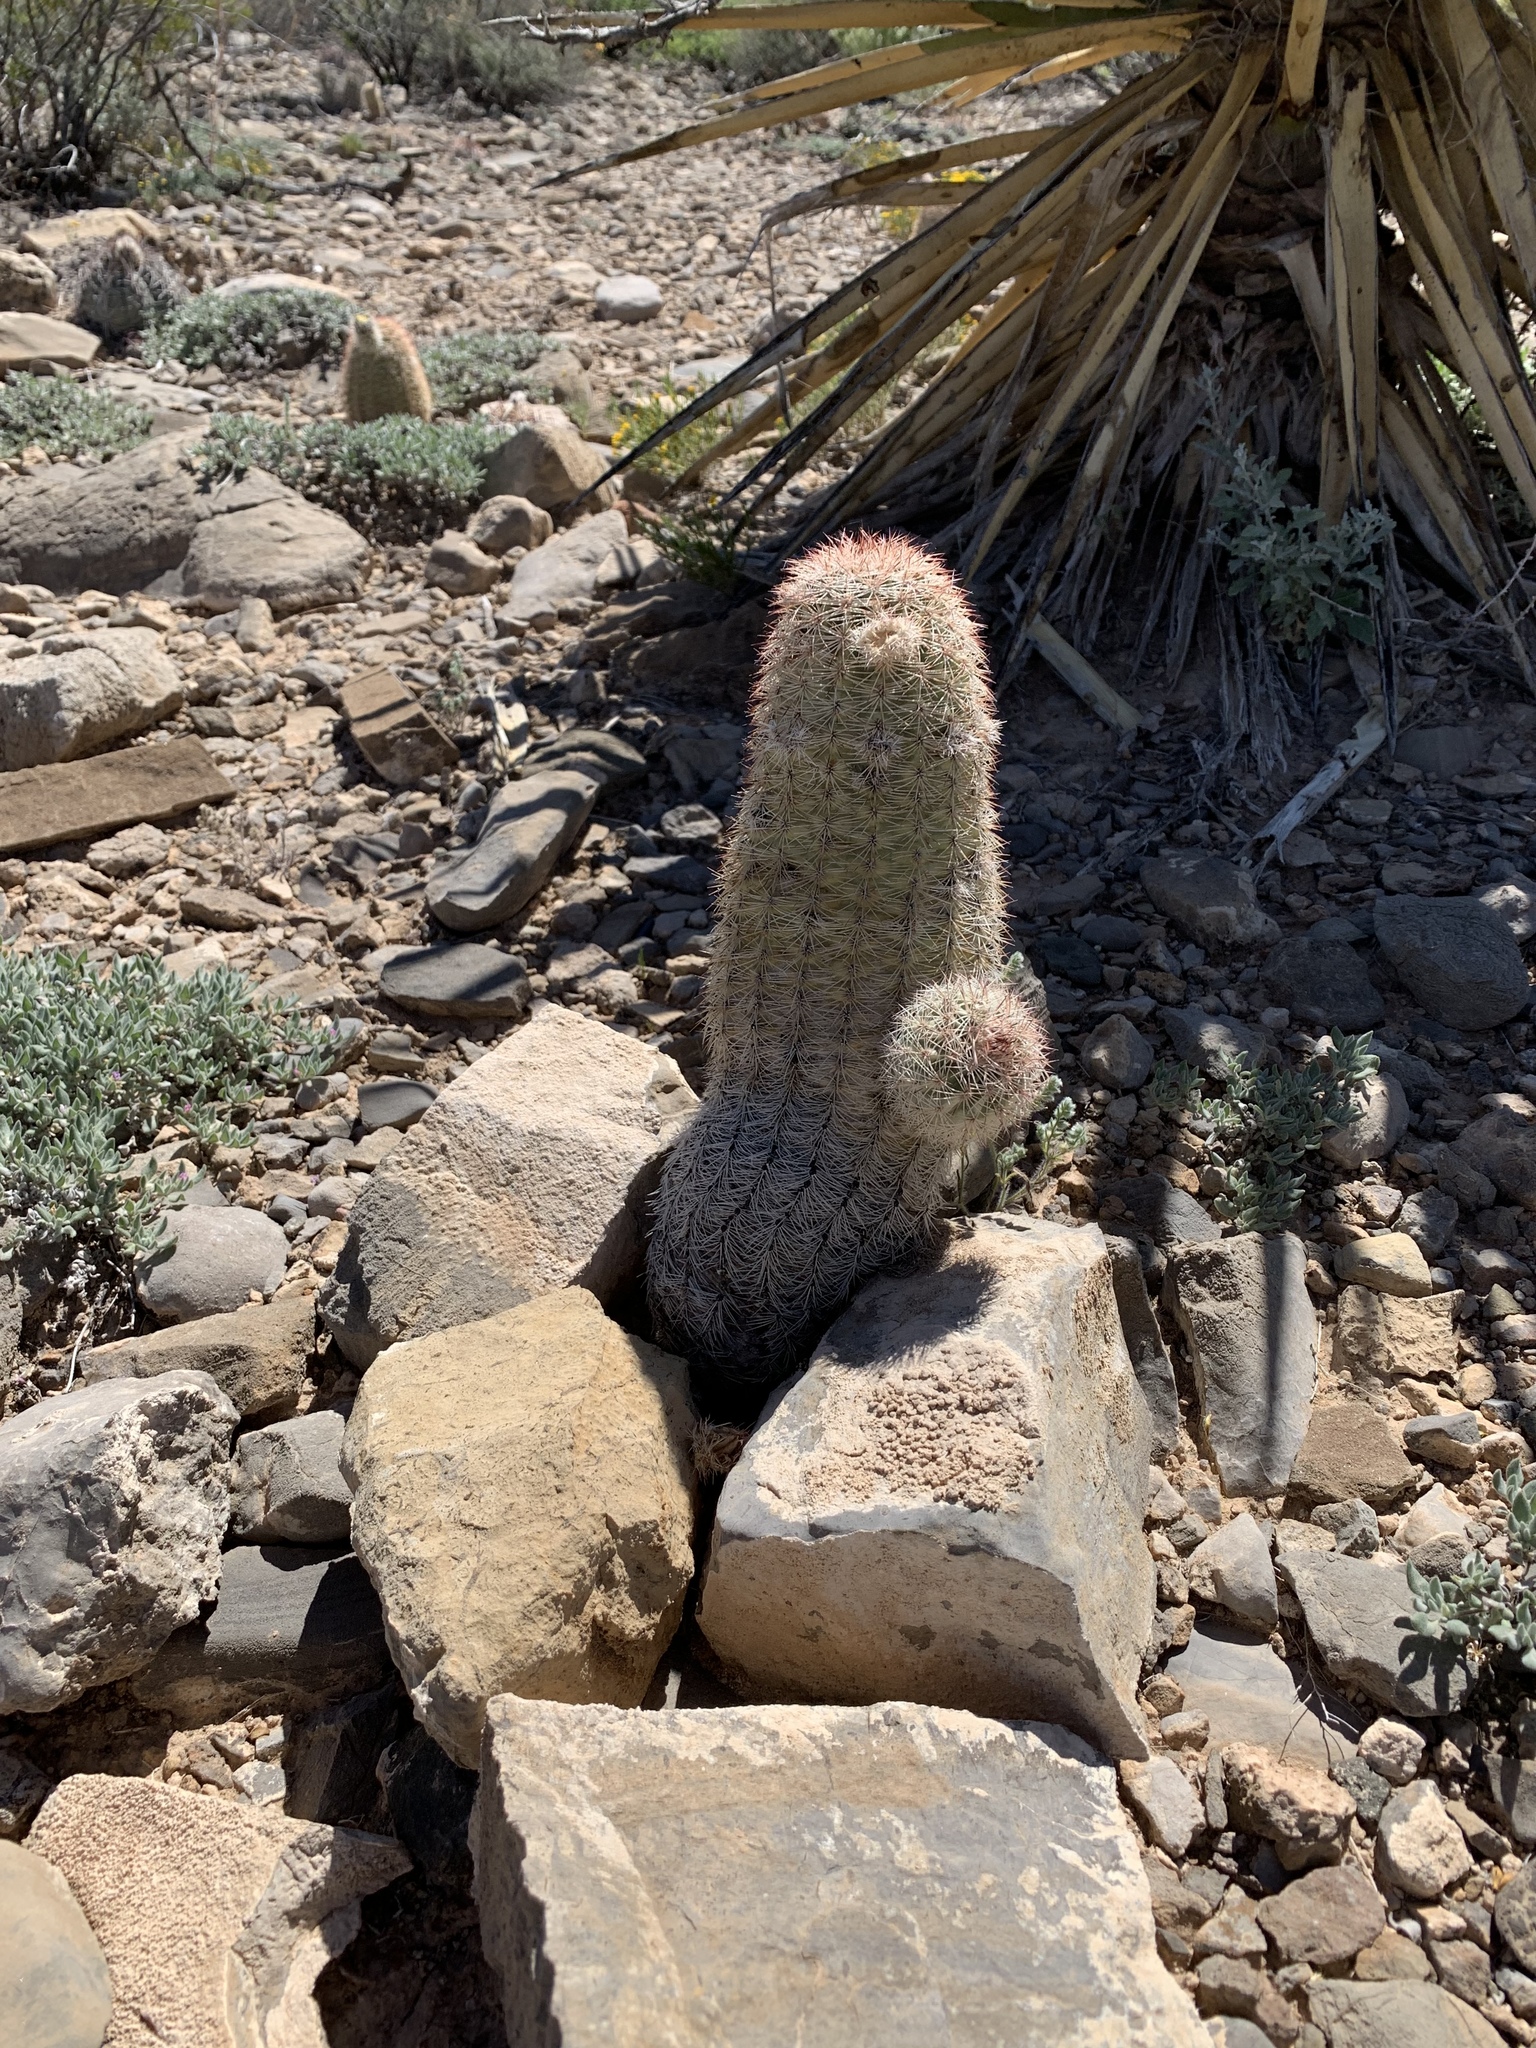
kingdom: Plantae
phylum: Tracheophyta
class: Magnoliopsida
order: Caryophyllales
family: Cactaceae
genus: Echinocereus
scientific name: Echinocereus dasyacanthus
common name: Spiny hedgehog cactus
